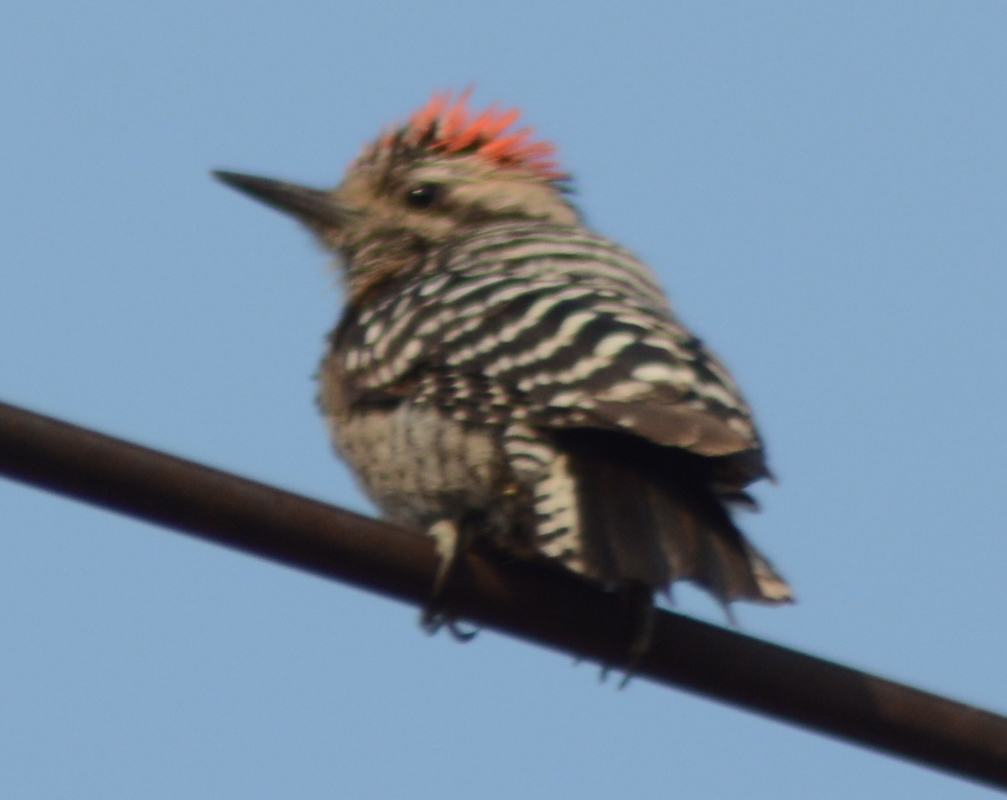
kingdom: Animalia
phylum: Chordata
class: Aves
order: Piciformes
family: Picidae
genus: Dryobates
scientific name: Dryobates scalaris
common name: Ladder-backed woodpecker
